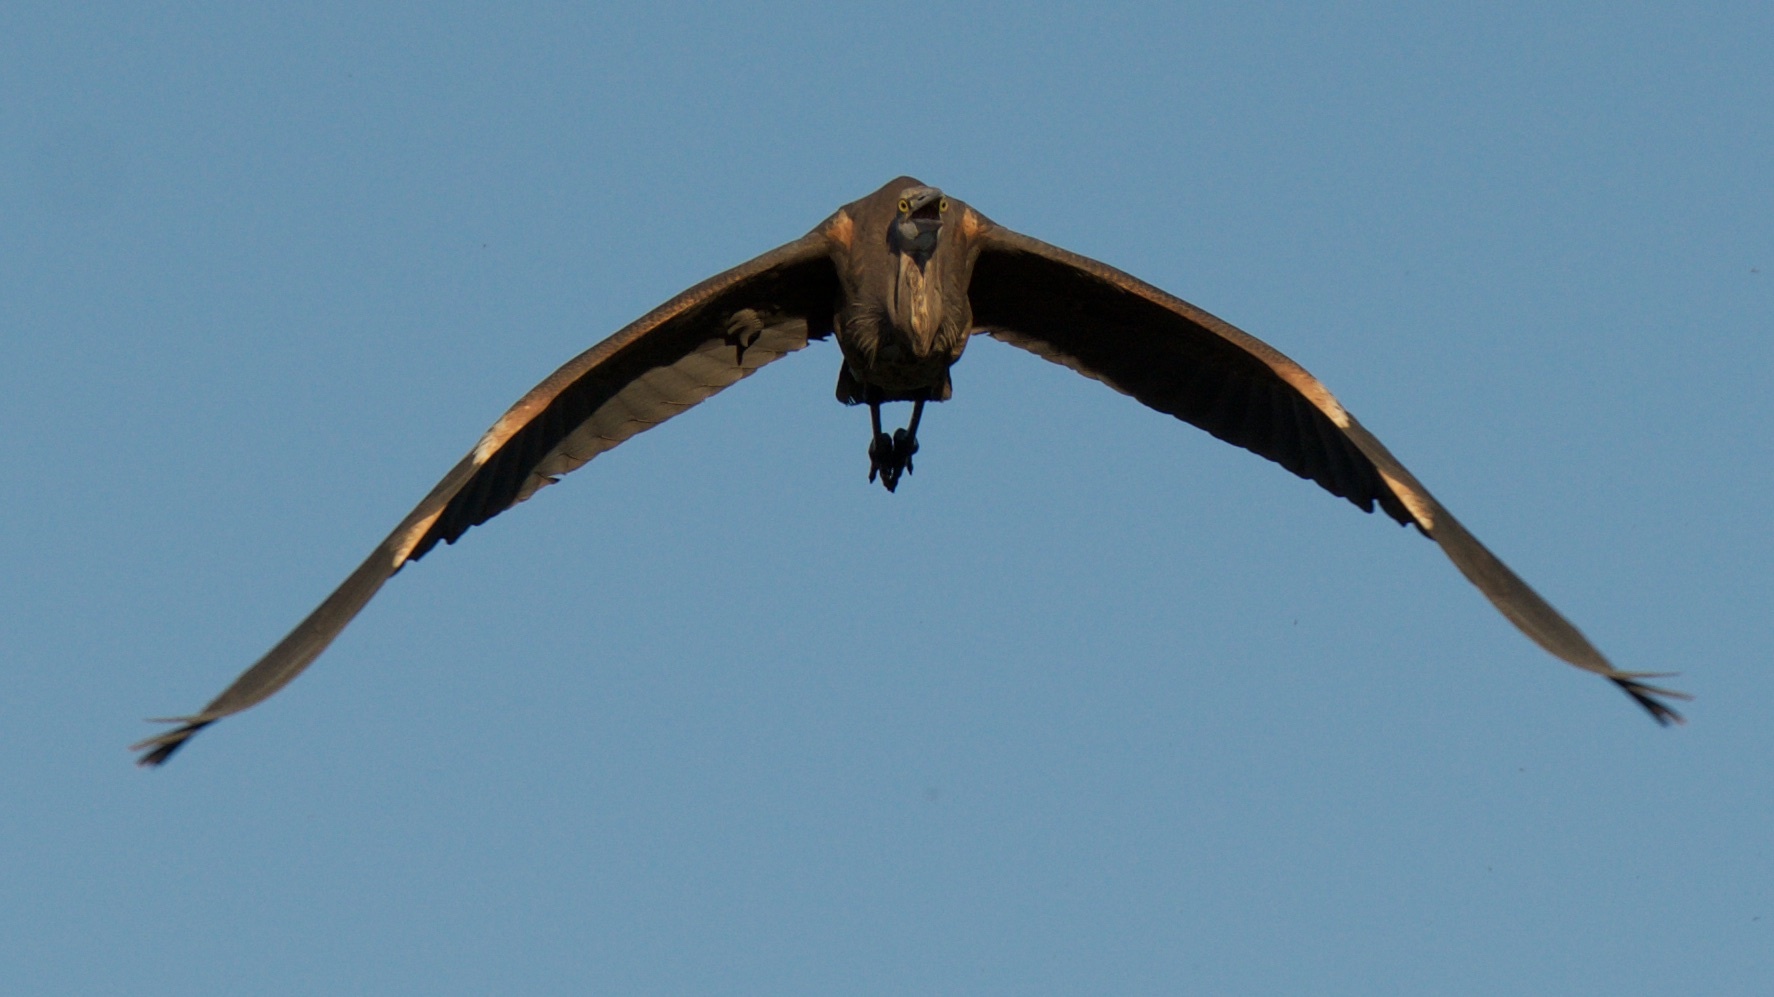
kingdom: Animalia
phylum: Chordata
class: Aves
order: Pelecaniformes
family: Ardeidae
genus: Ardea
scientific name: Ardea herodias
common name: Great blue heron
